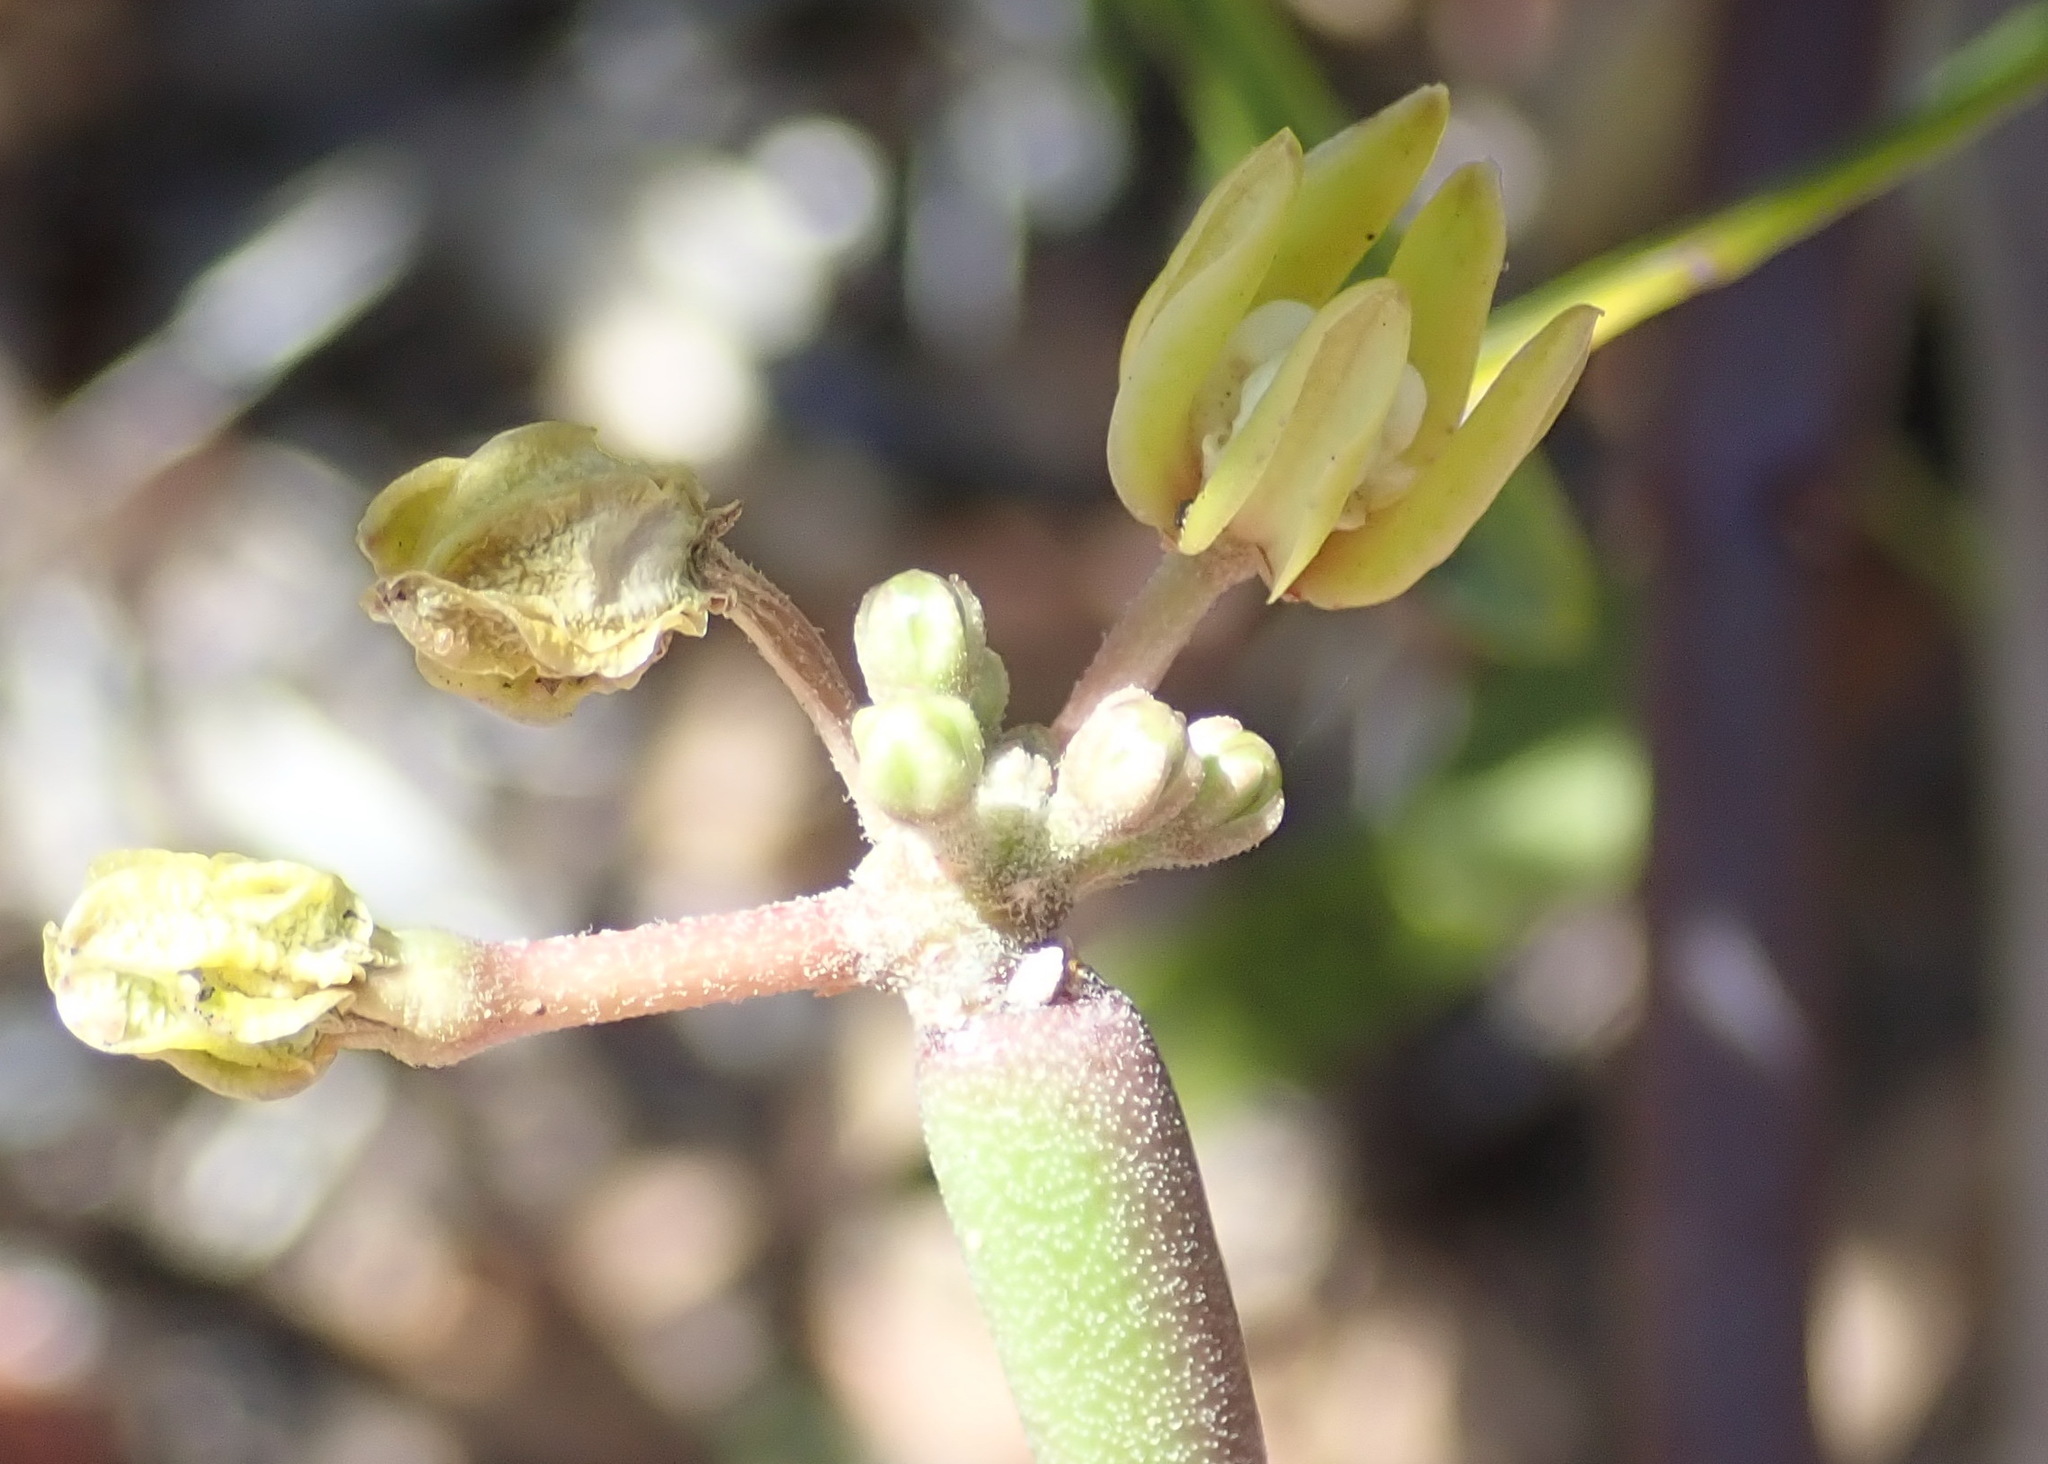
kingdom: Plantae
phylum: Tracheophyta
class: Magnoliopsida
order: Gentianales
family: Apocynaceae
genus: Cynanchum
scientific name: Cynanchum viminale
